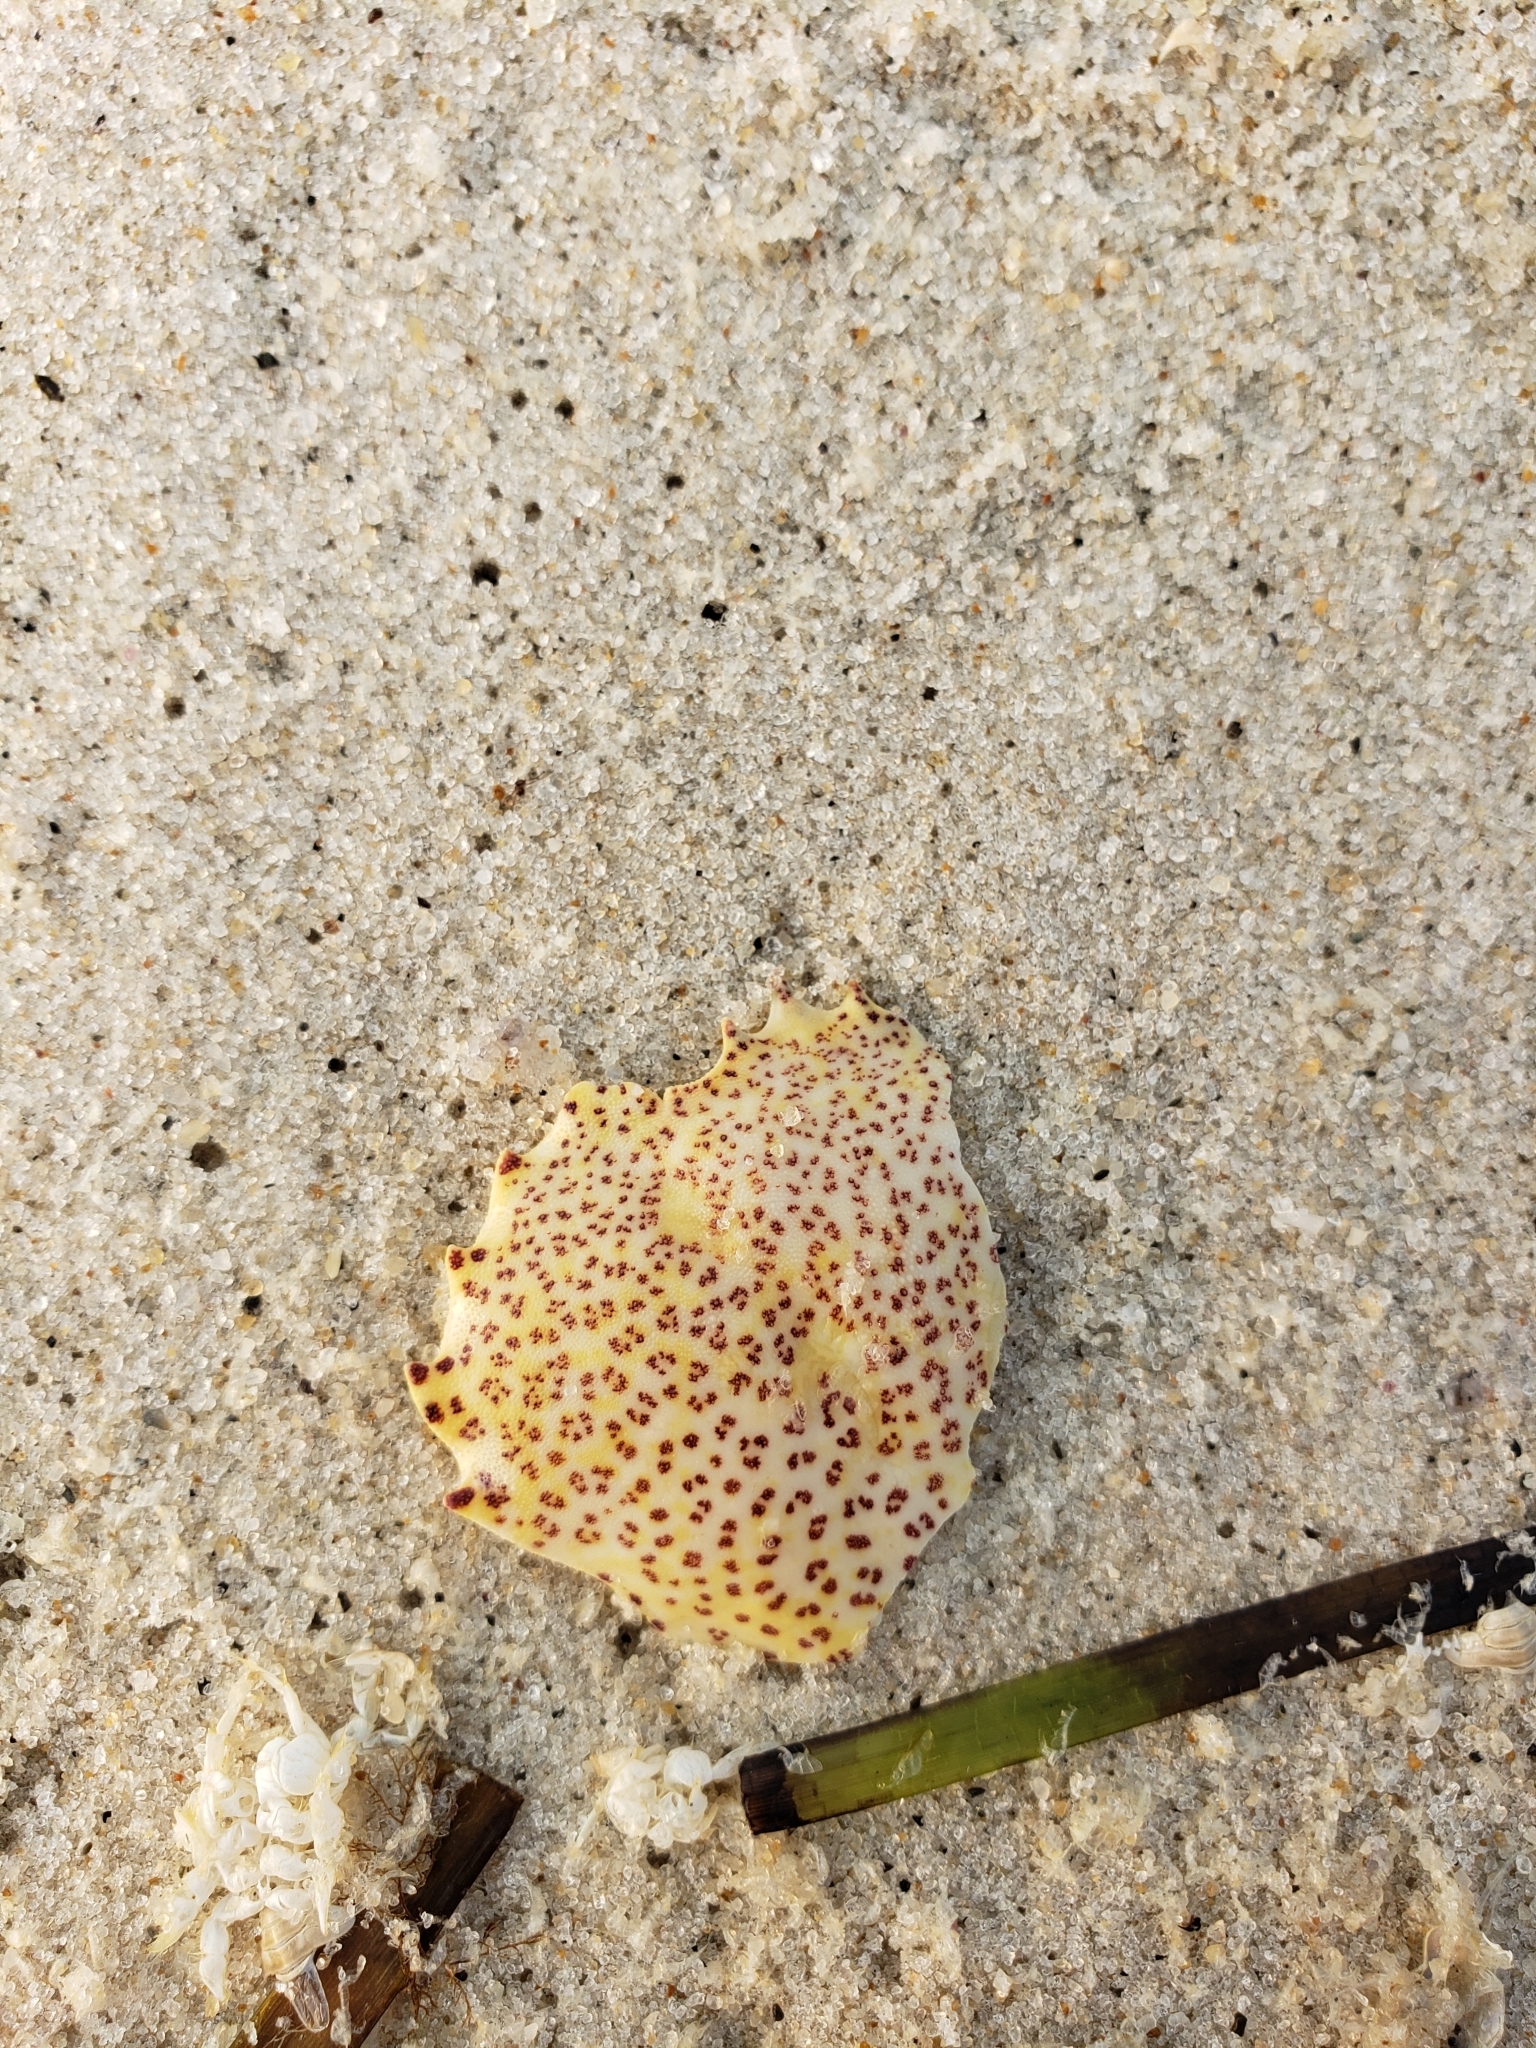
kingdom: Animalia
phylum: Arthropoda
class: Malacostraca
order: Decapoda
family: Ovalipidae
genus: Ovalipes
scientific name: Ovalipes ocellatus
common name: Lady crab
